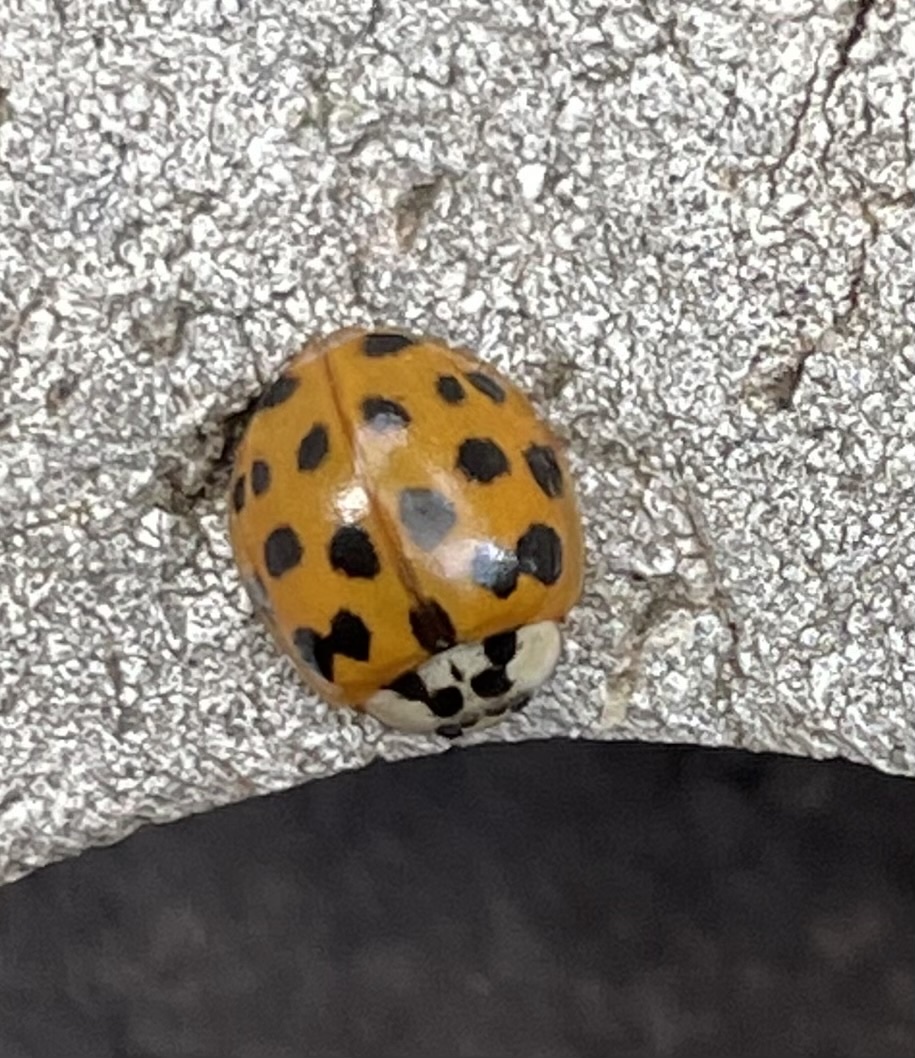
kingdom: Animalia
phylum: Arthropoda
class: Insecta
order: Coleoptera
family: Coccinellidae
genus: Harmonia
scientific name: Harmonia axyridis
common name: Harlequin ladybird
